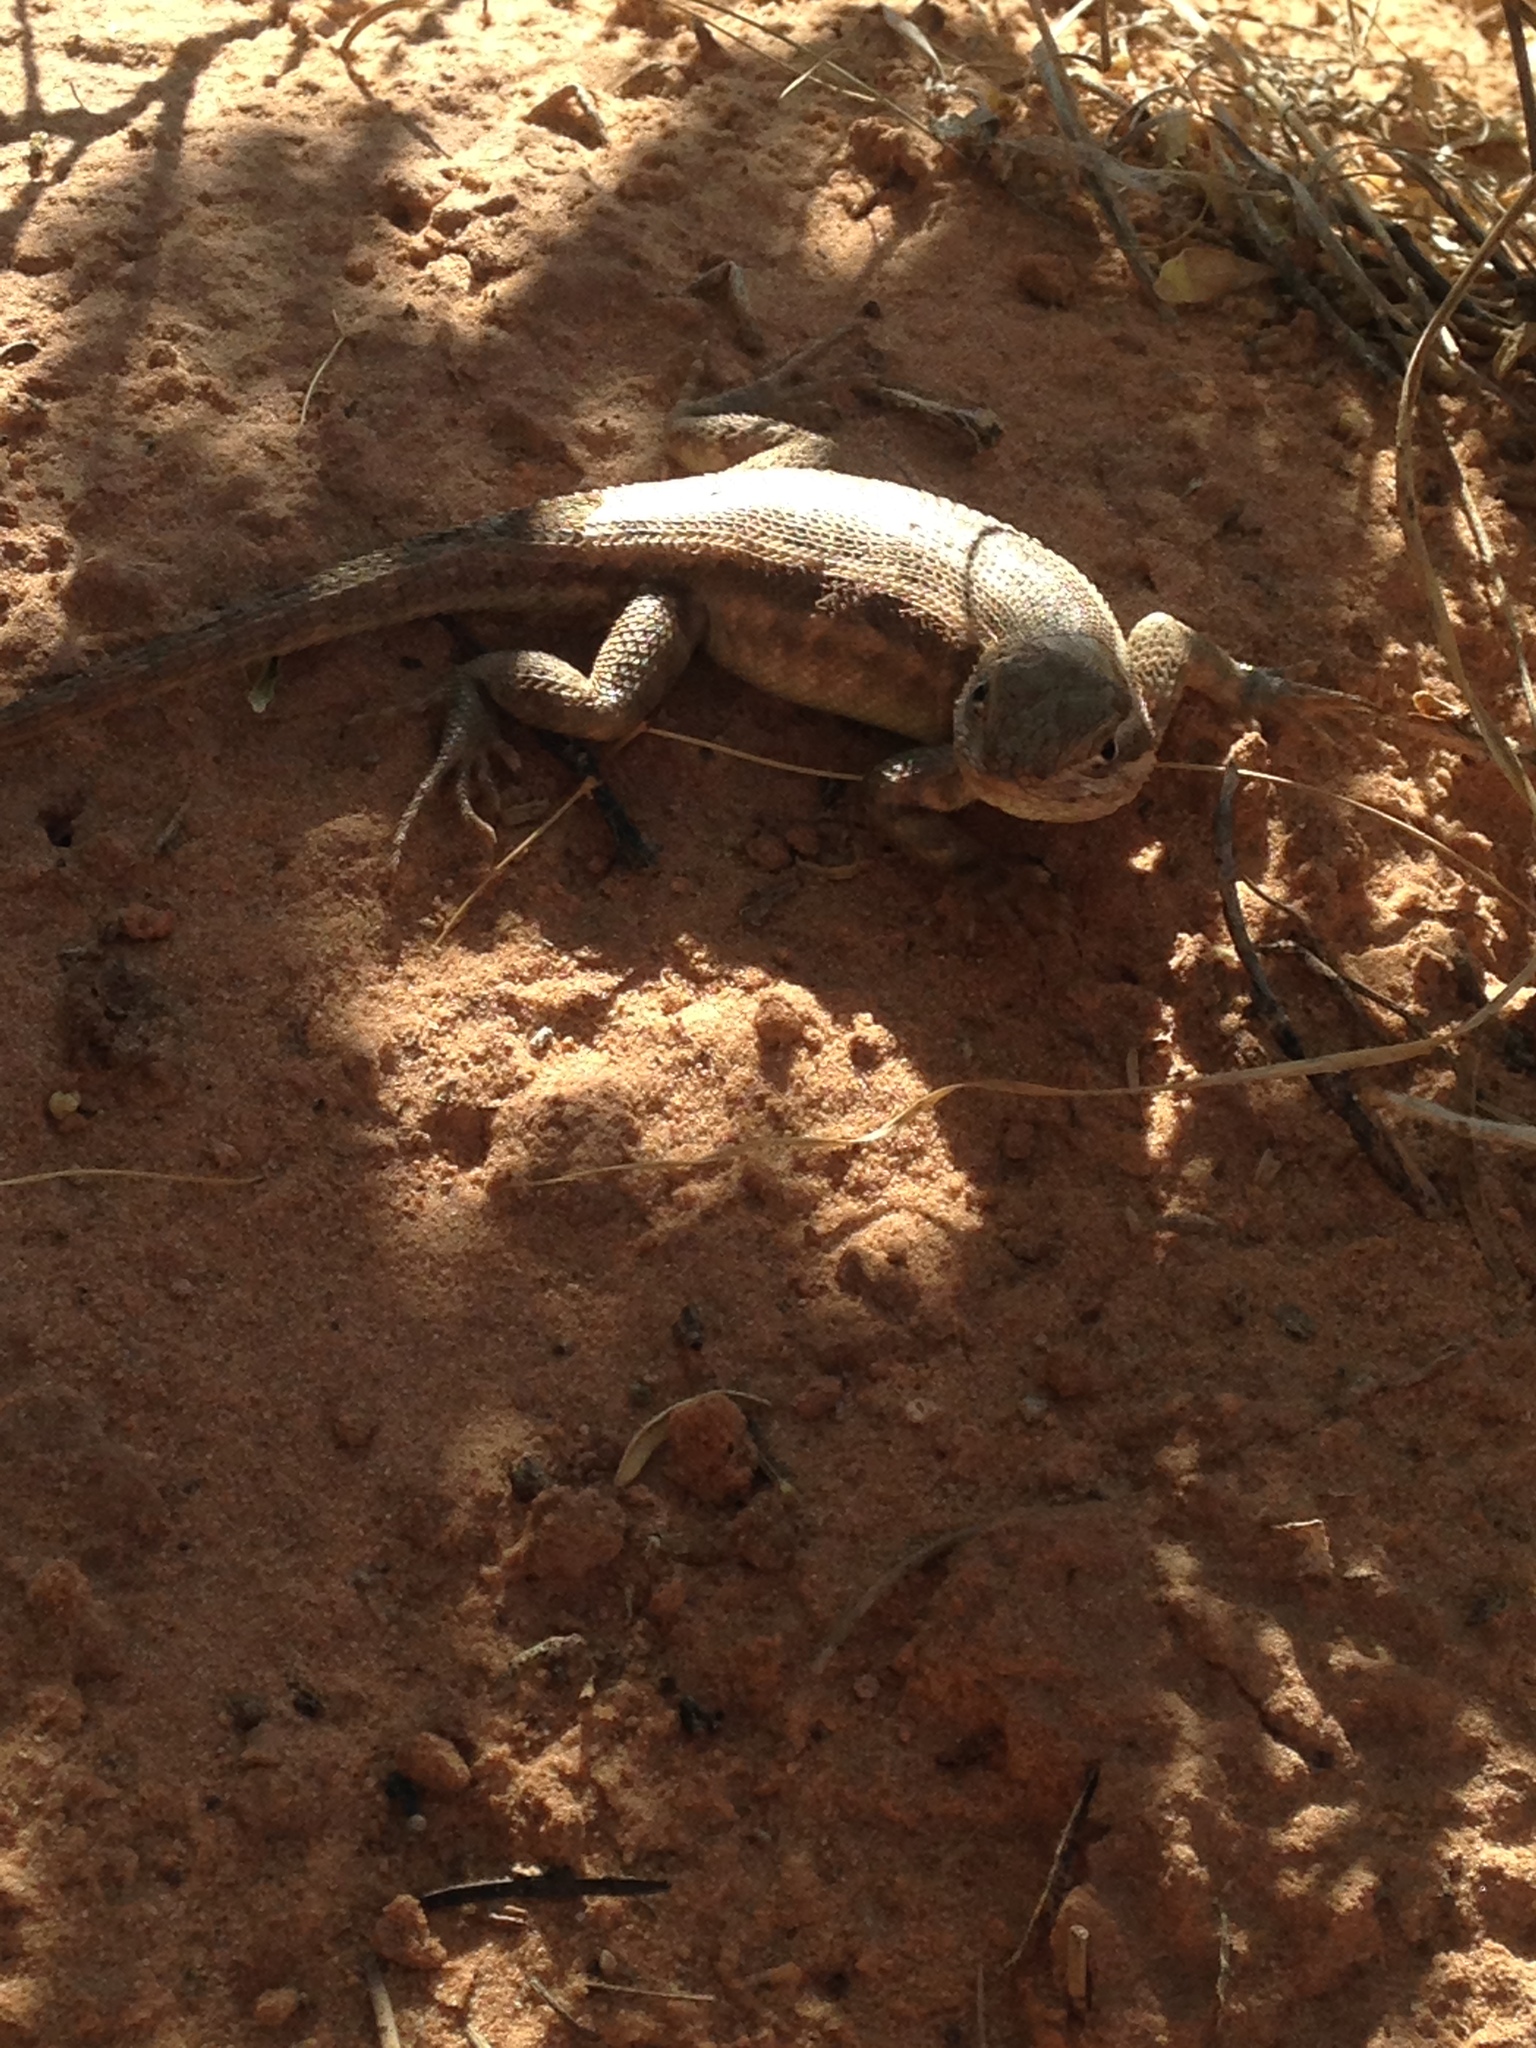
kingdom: Animalia
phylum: Chordata
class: Squamata
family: Phrynosomatidae
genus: Sceloporus
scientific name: Sceloporus graciosus
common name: Sagebrush lizard
